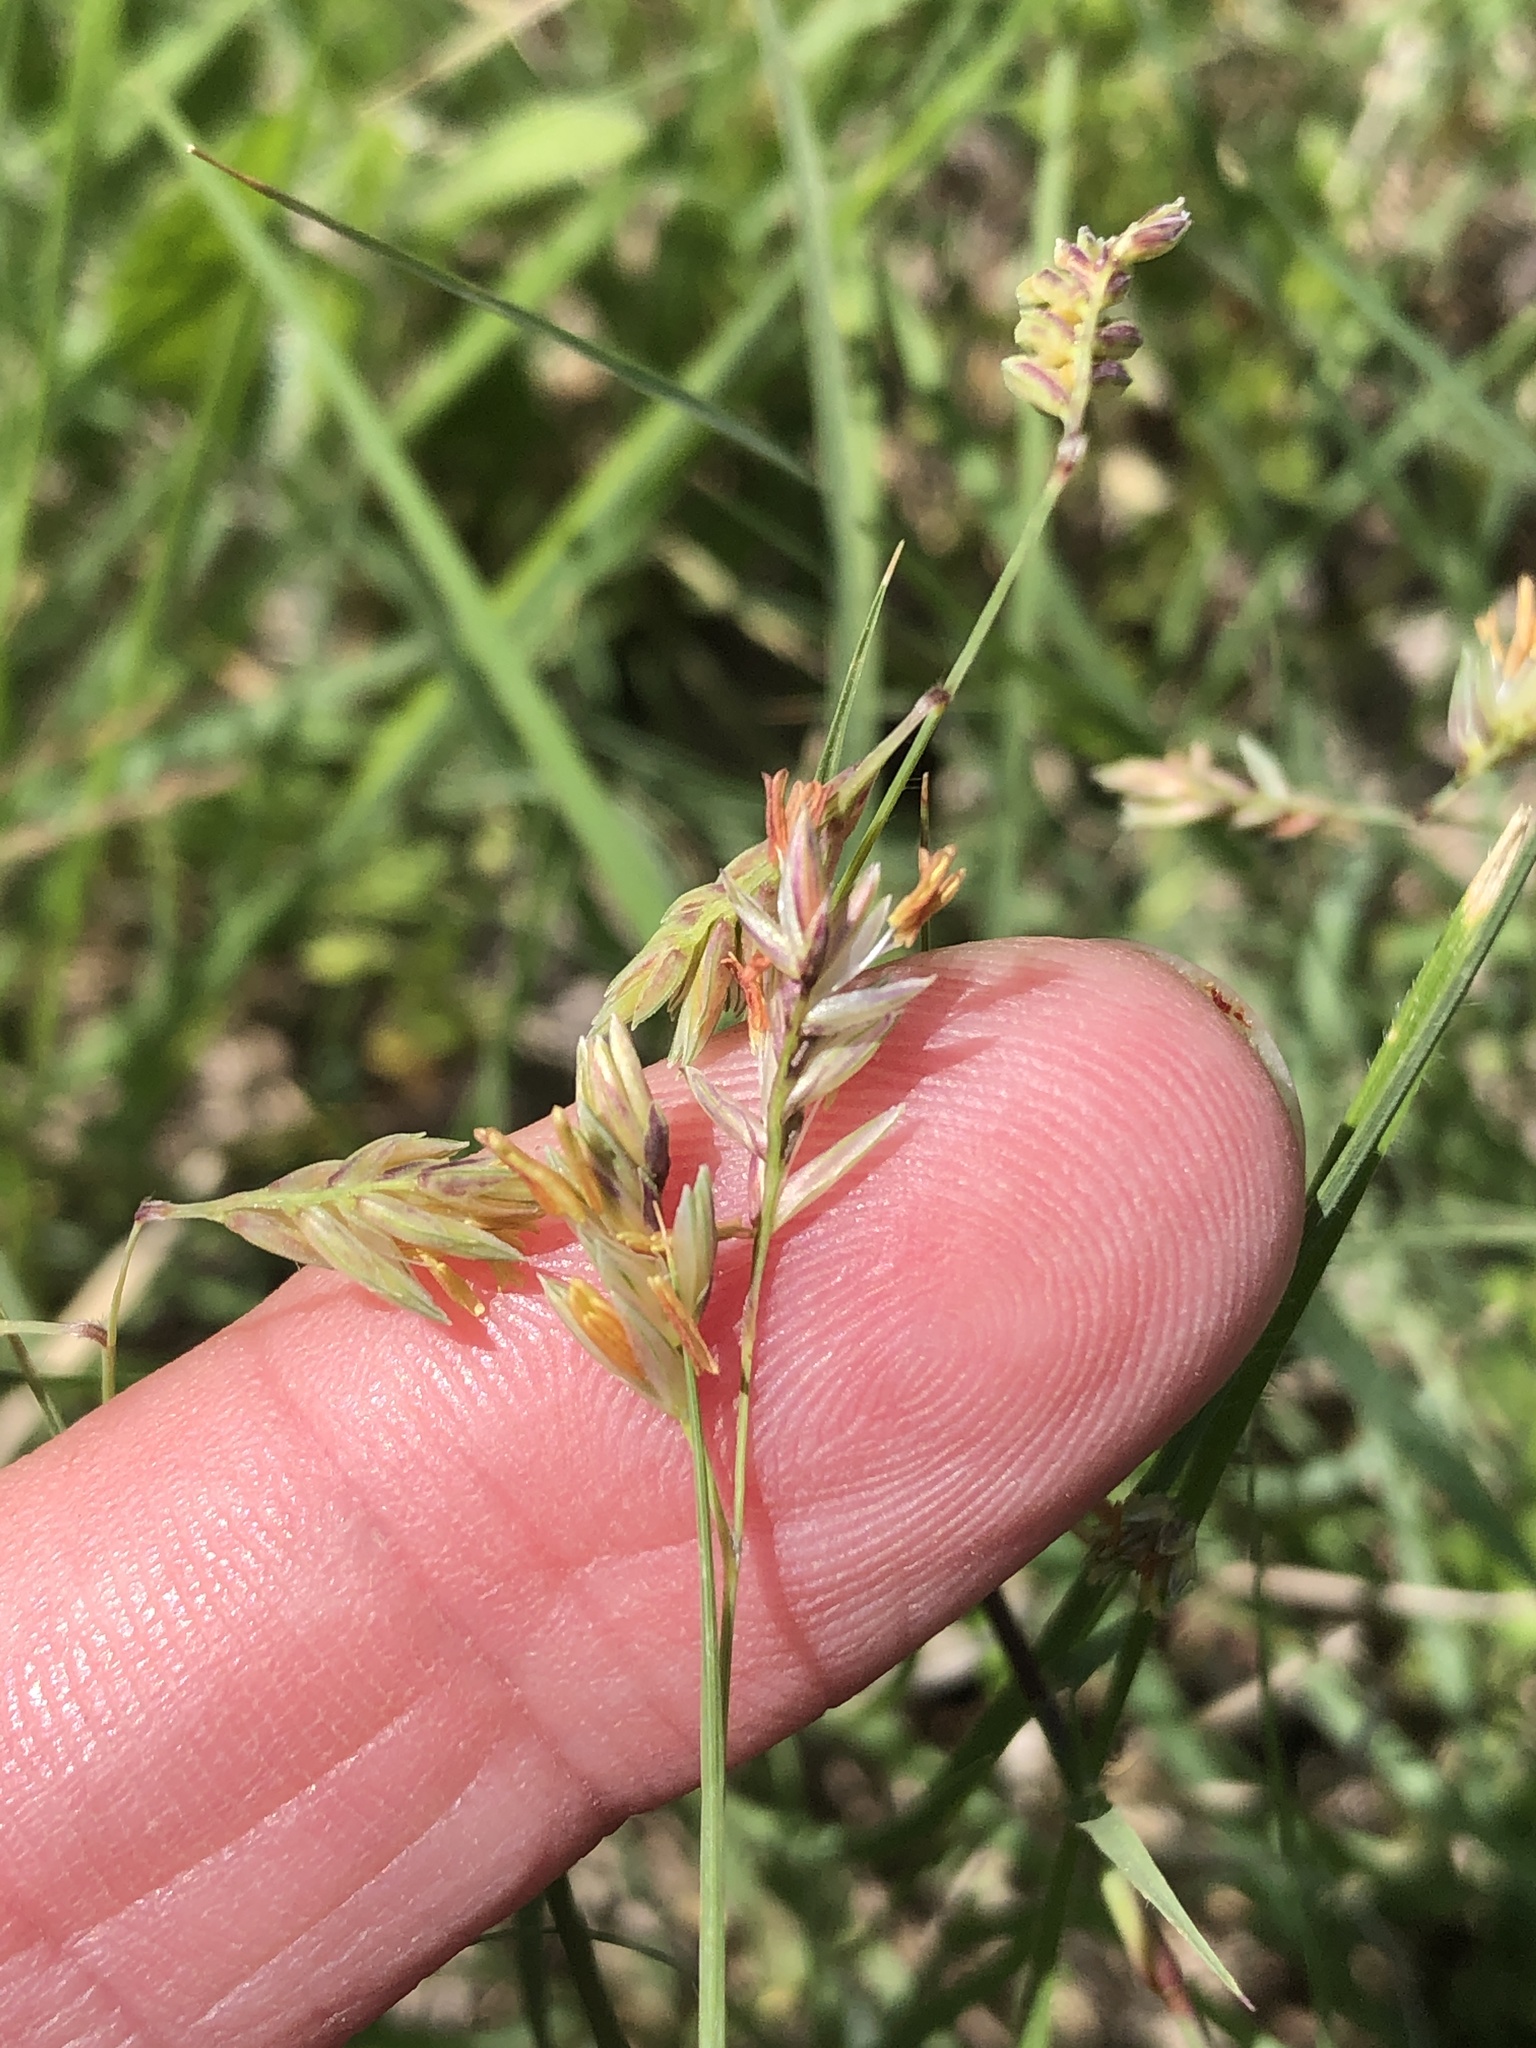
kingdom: Plantae
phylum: Tracheophyta
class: Liliopsida
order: Poales
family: Poaceae
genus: Bouteloua
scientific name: Bouteloua dactyloides
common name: Buffalo grass
